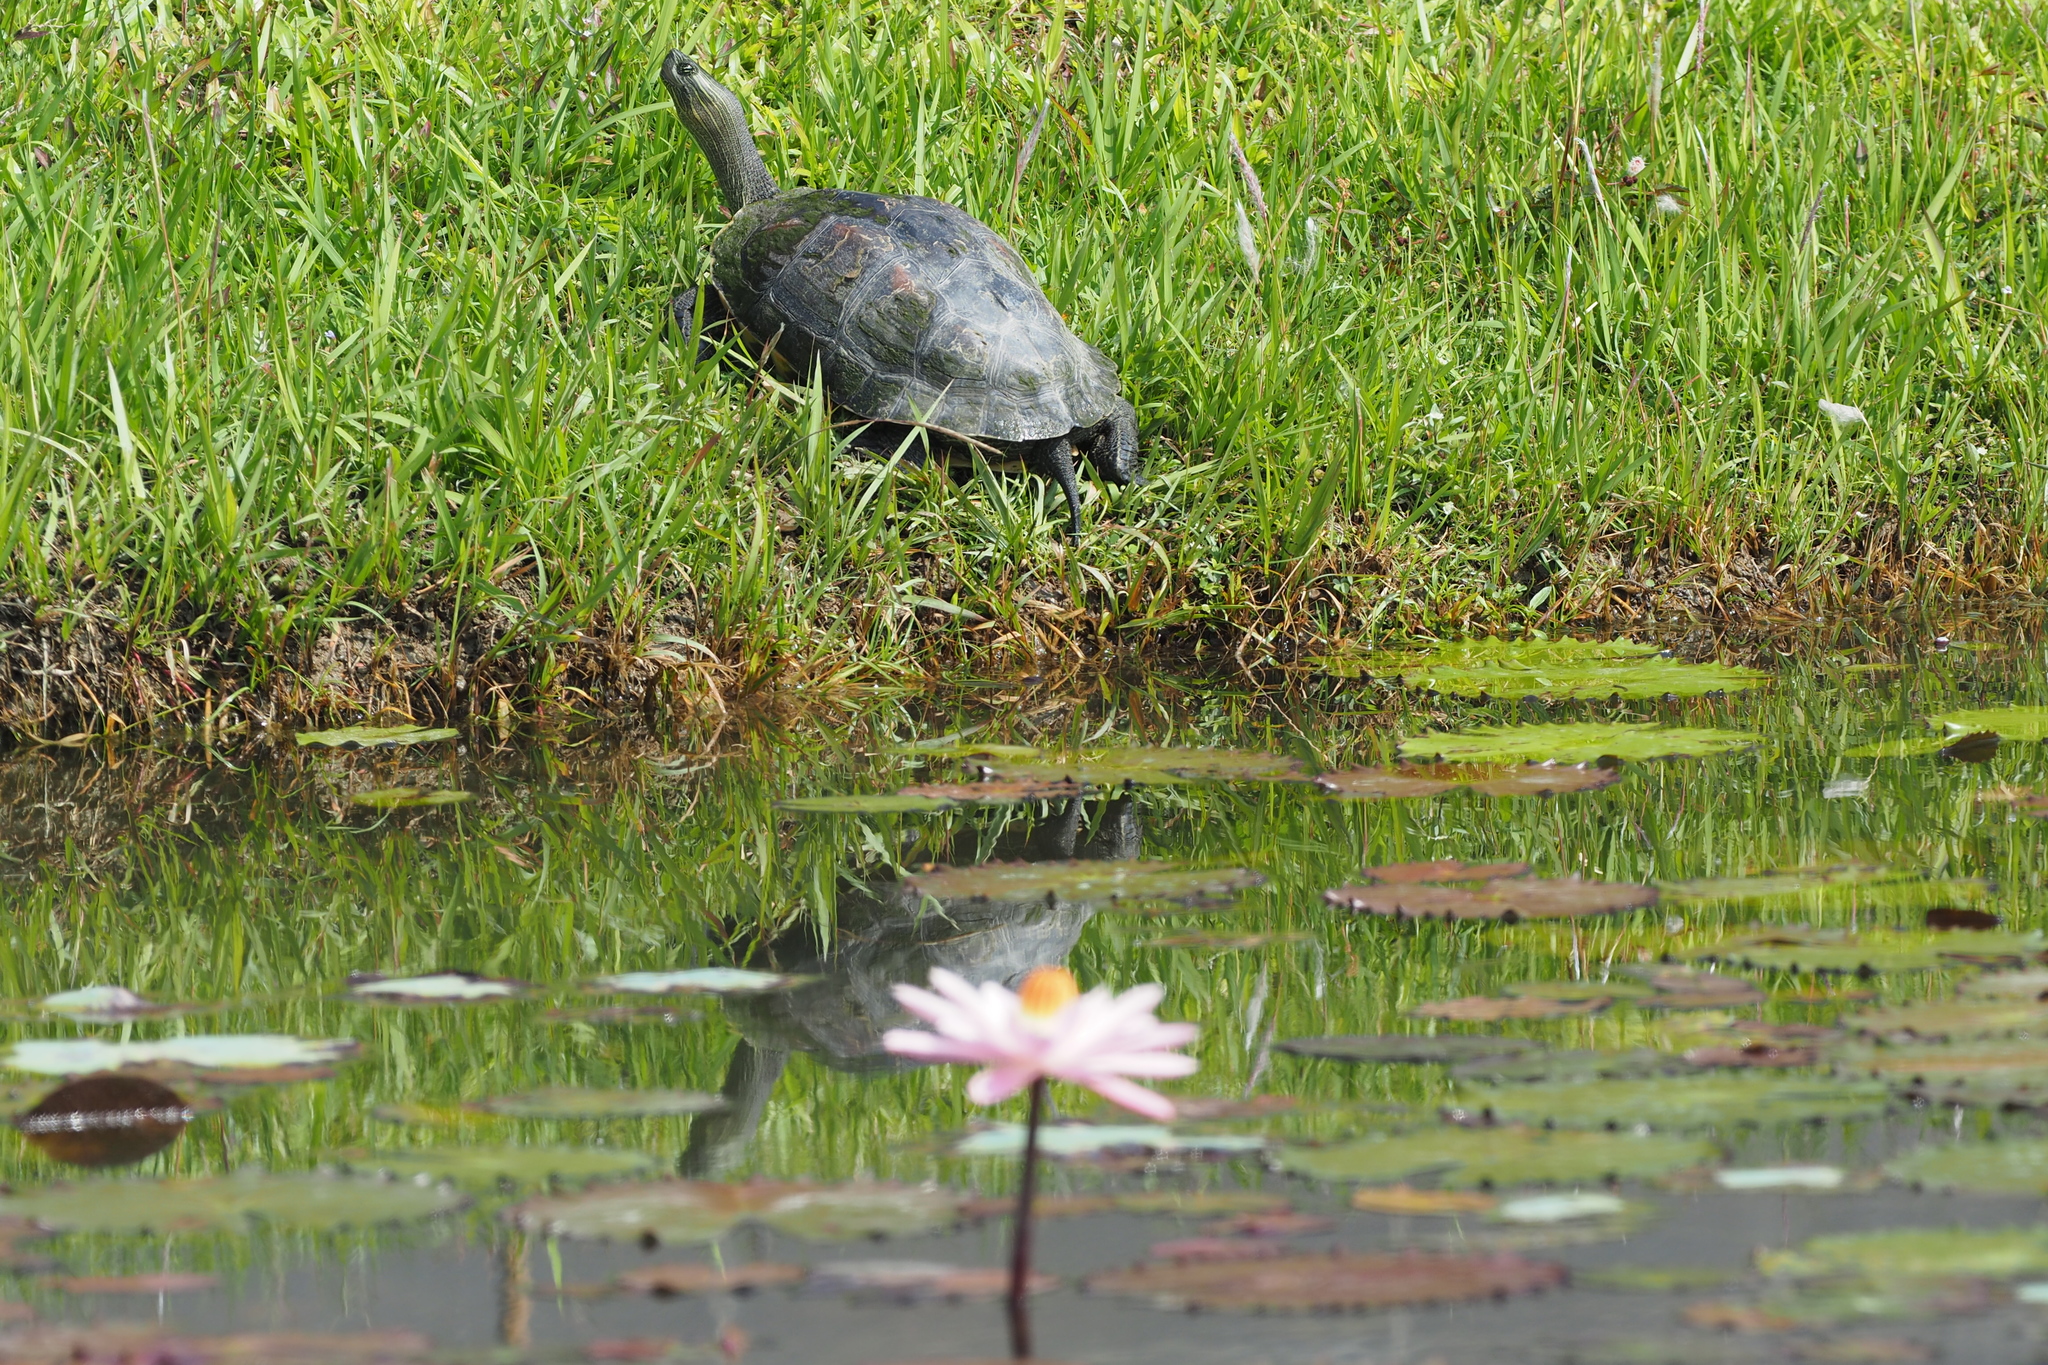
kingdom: Animalia
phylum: Chordata
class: Testudines
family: Geoemydidae
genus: Mauremys
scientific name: Mauremys sinensis
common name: Chinese stripe-necked turtle
